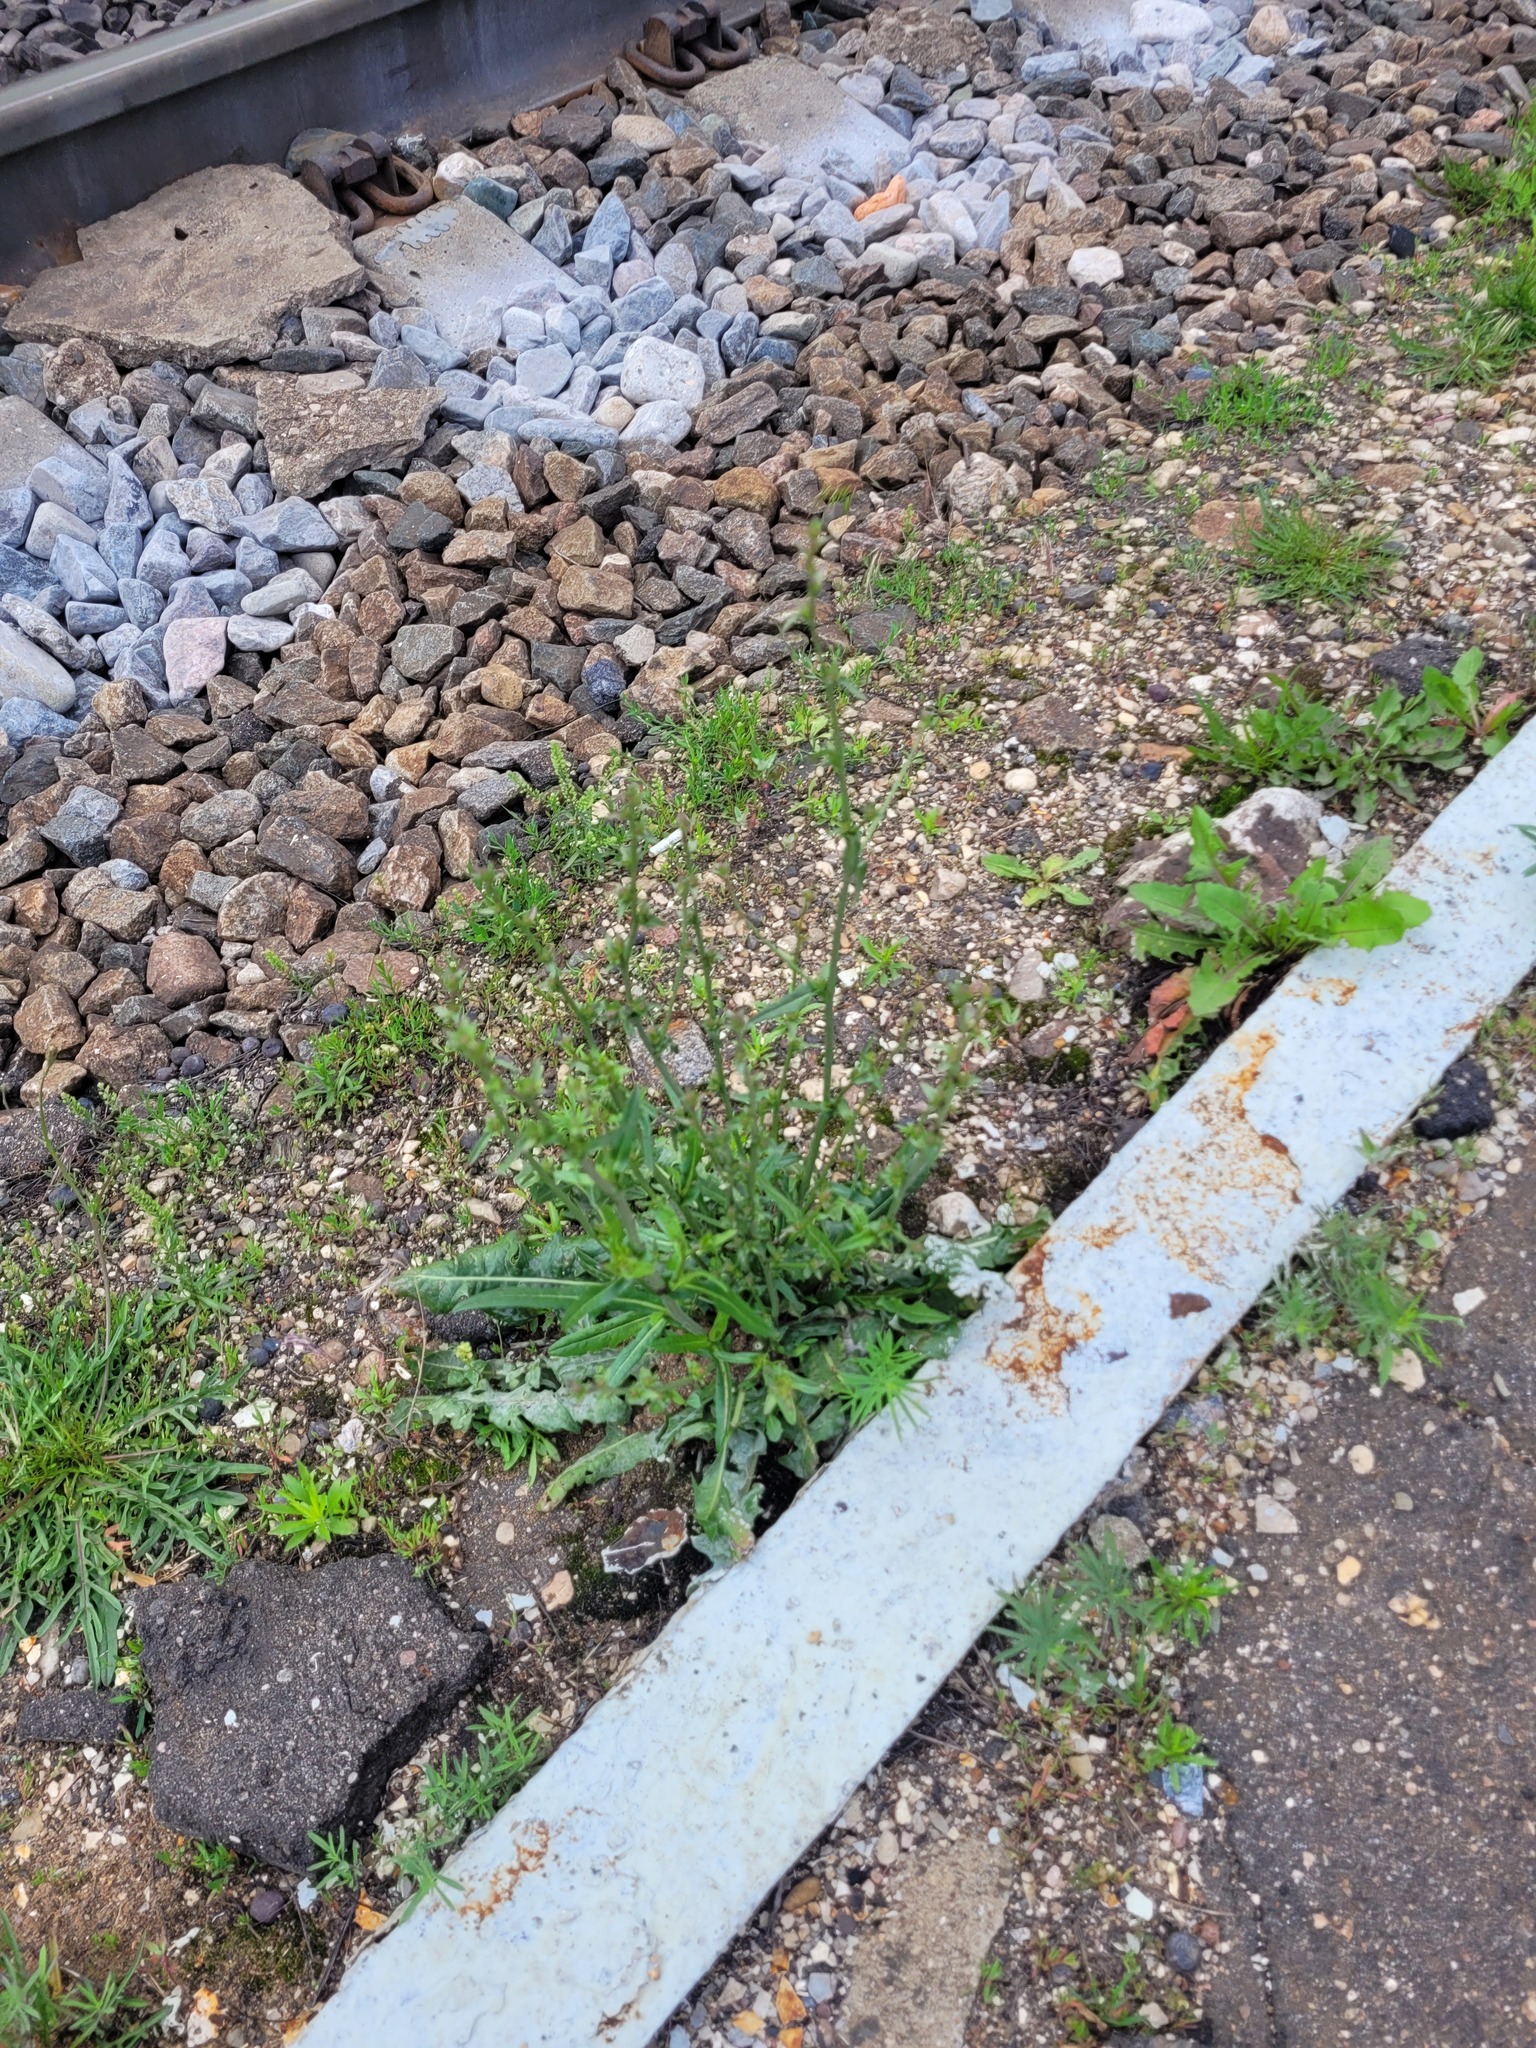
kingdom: Plantae
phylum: Tracheophyta
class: Magnoliopsida
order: Asterales
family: Asteraceae
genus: Cichorium
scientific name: Cichorium intybus
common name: Chicory
